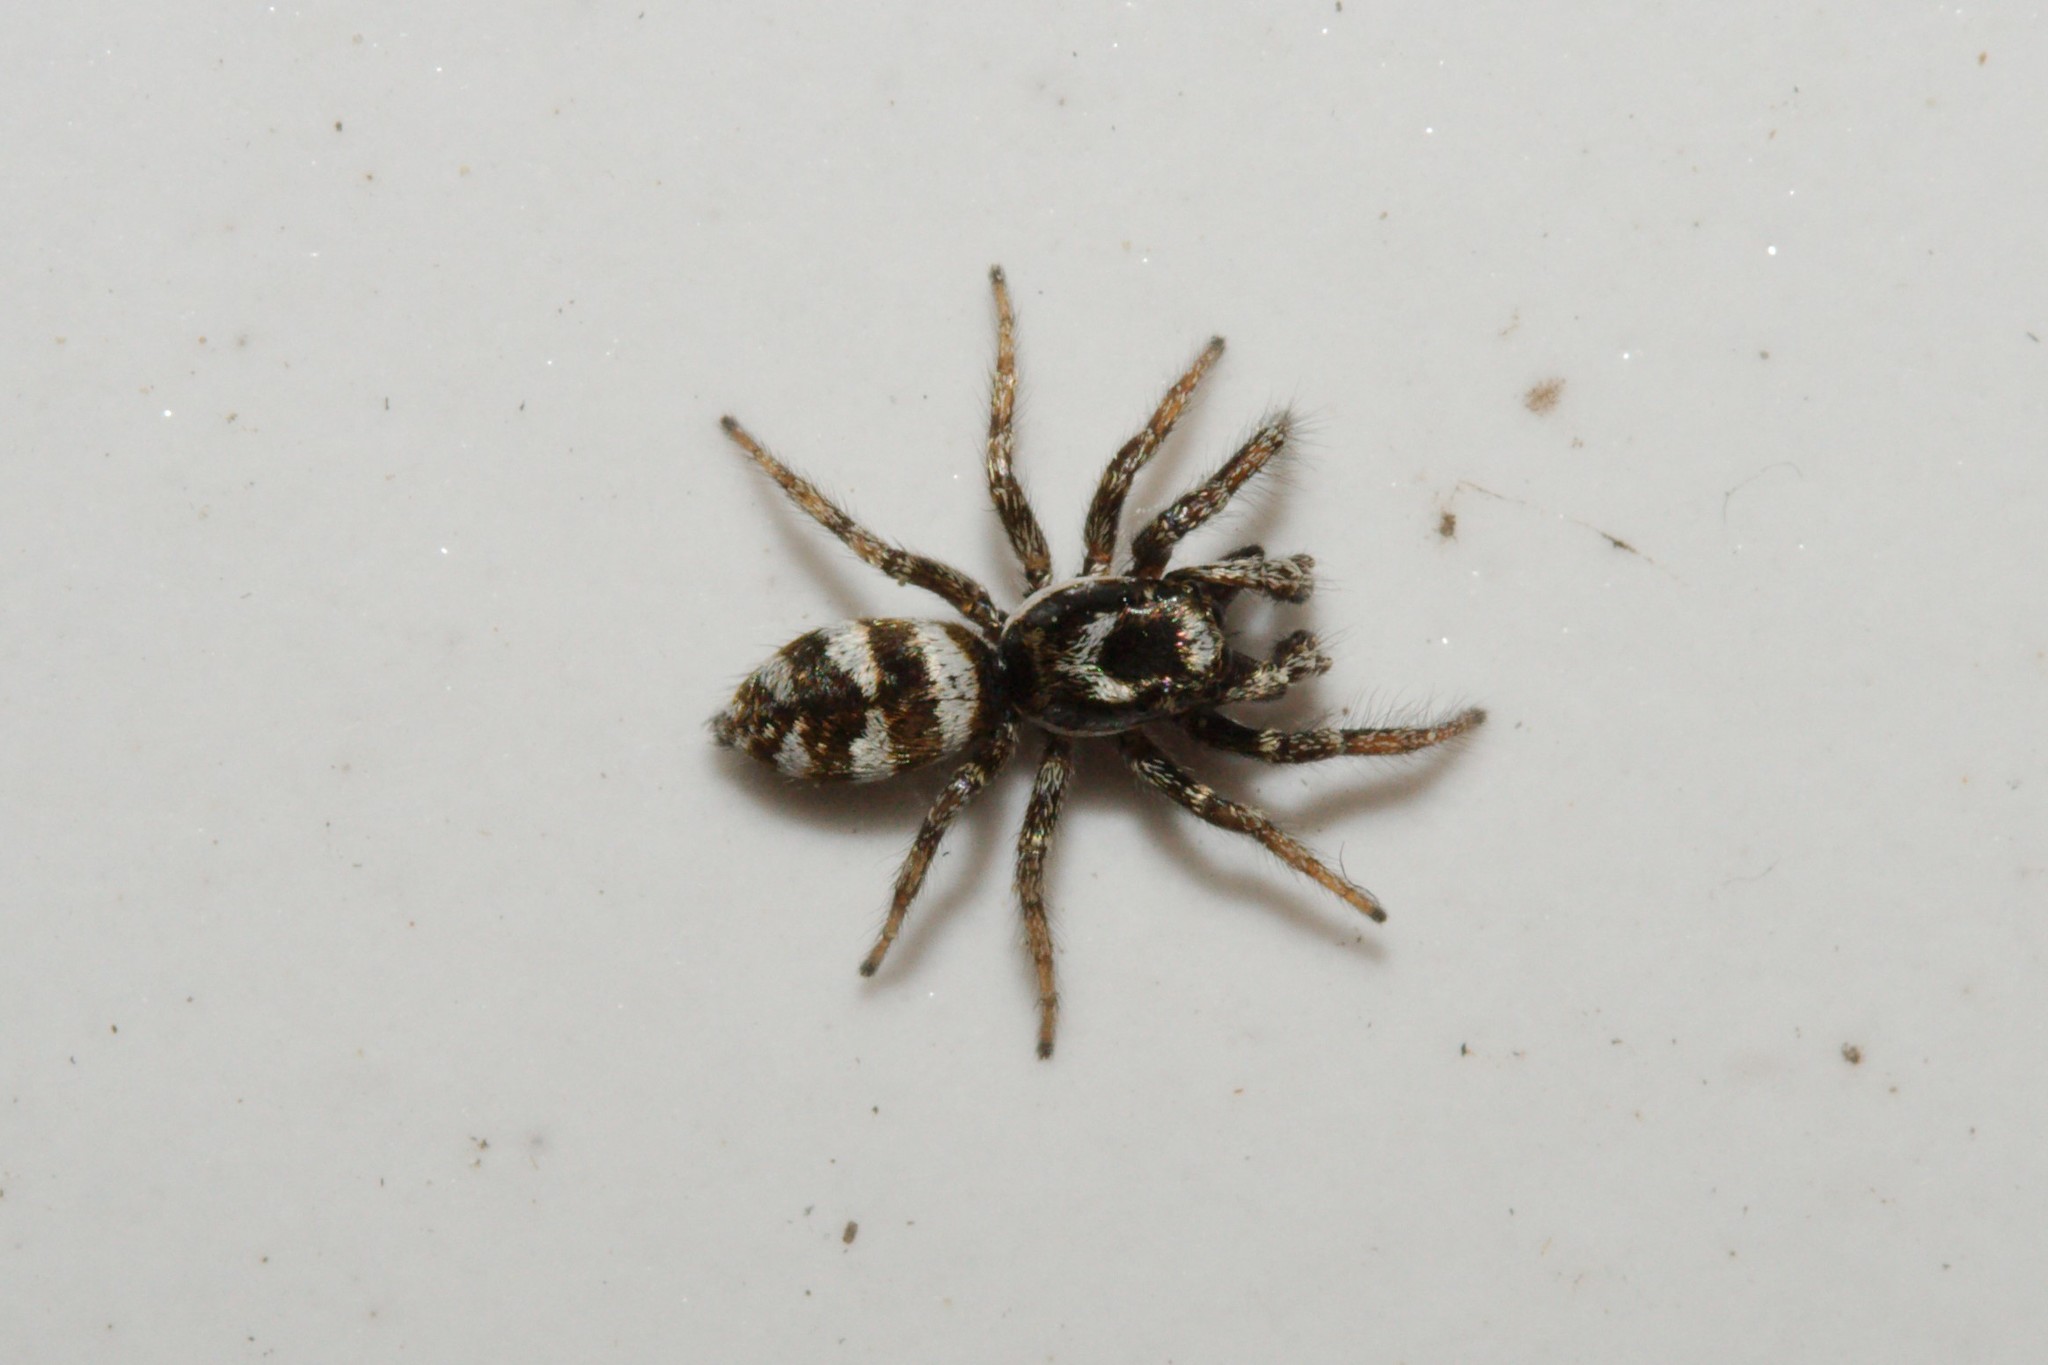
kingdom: Animalia
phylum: Arthropoda
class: Arachnida
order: Araneae
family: Salticidae
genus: Salticus
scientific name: Salticus scenicus
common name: Zebra jumper
